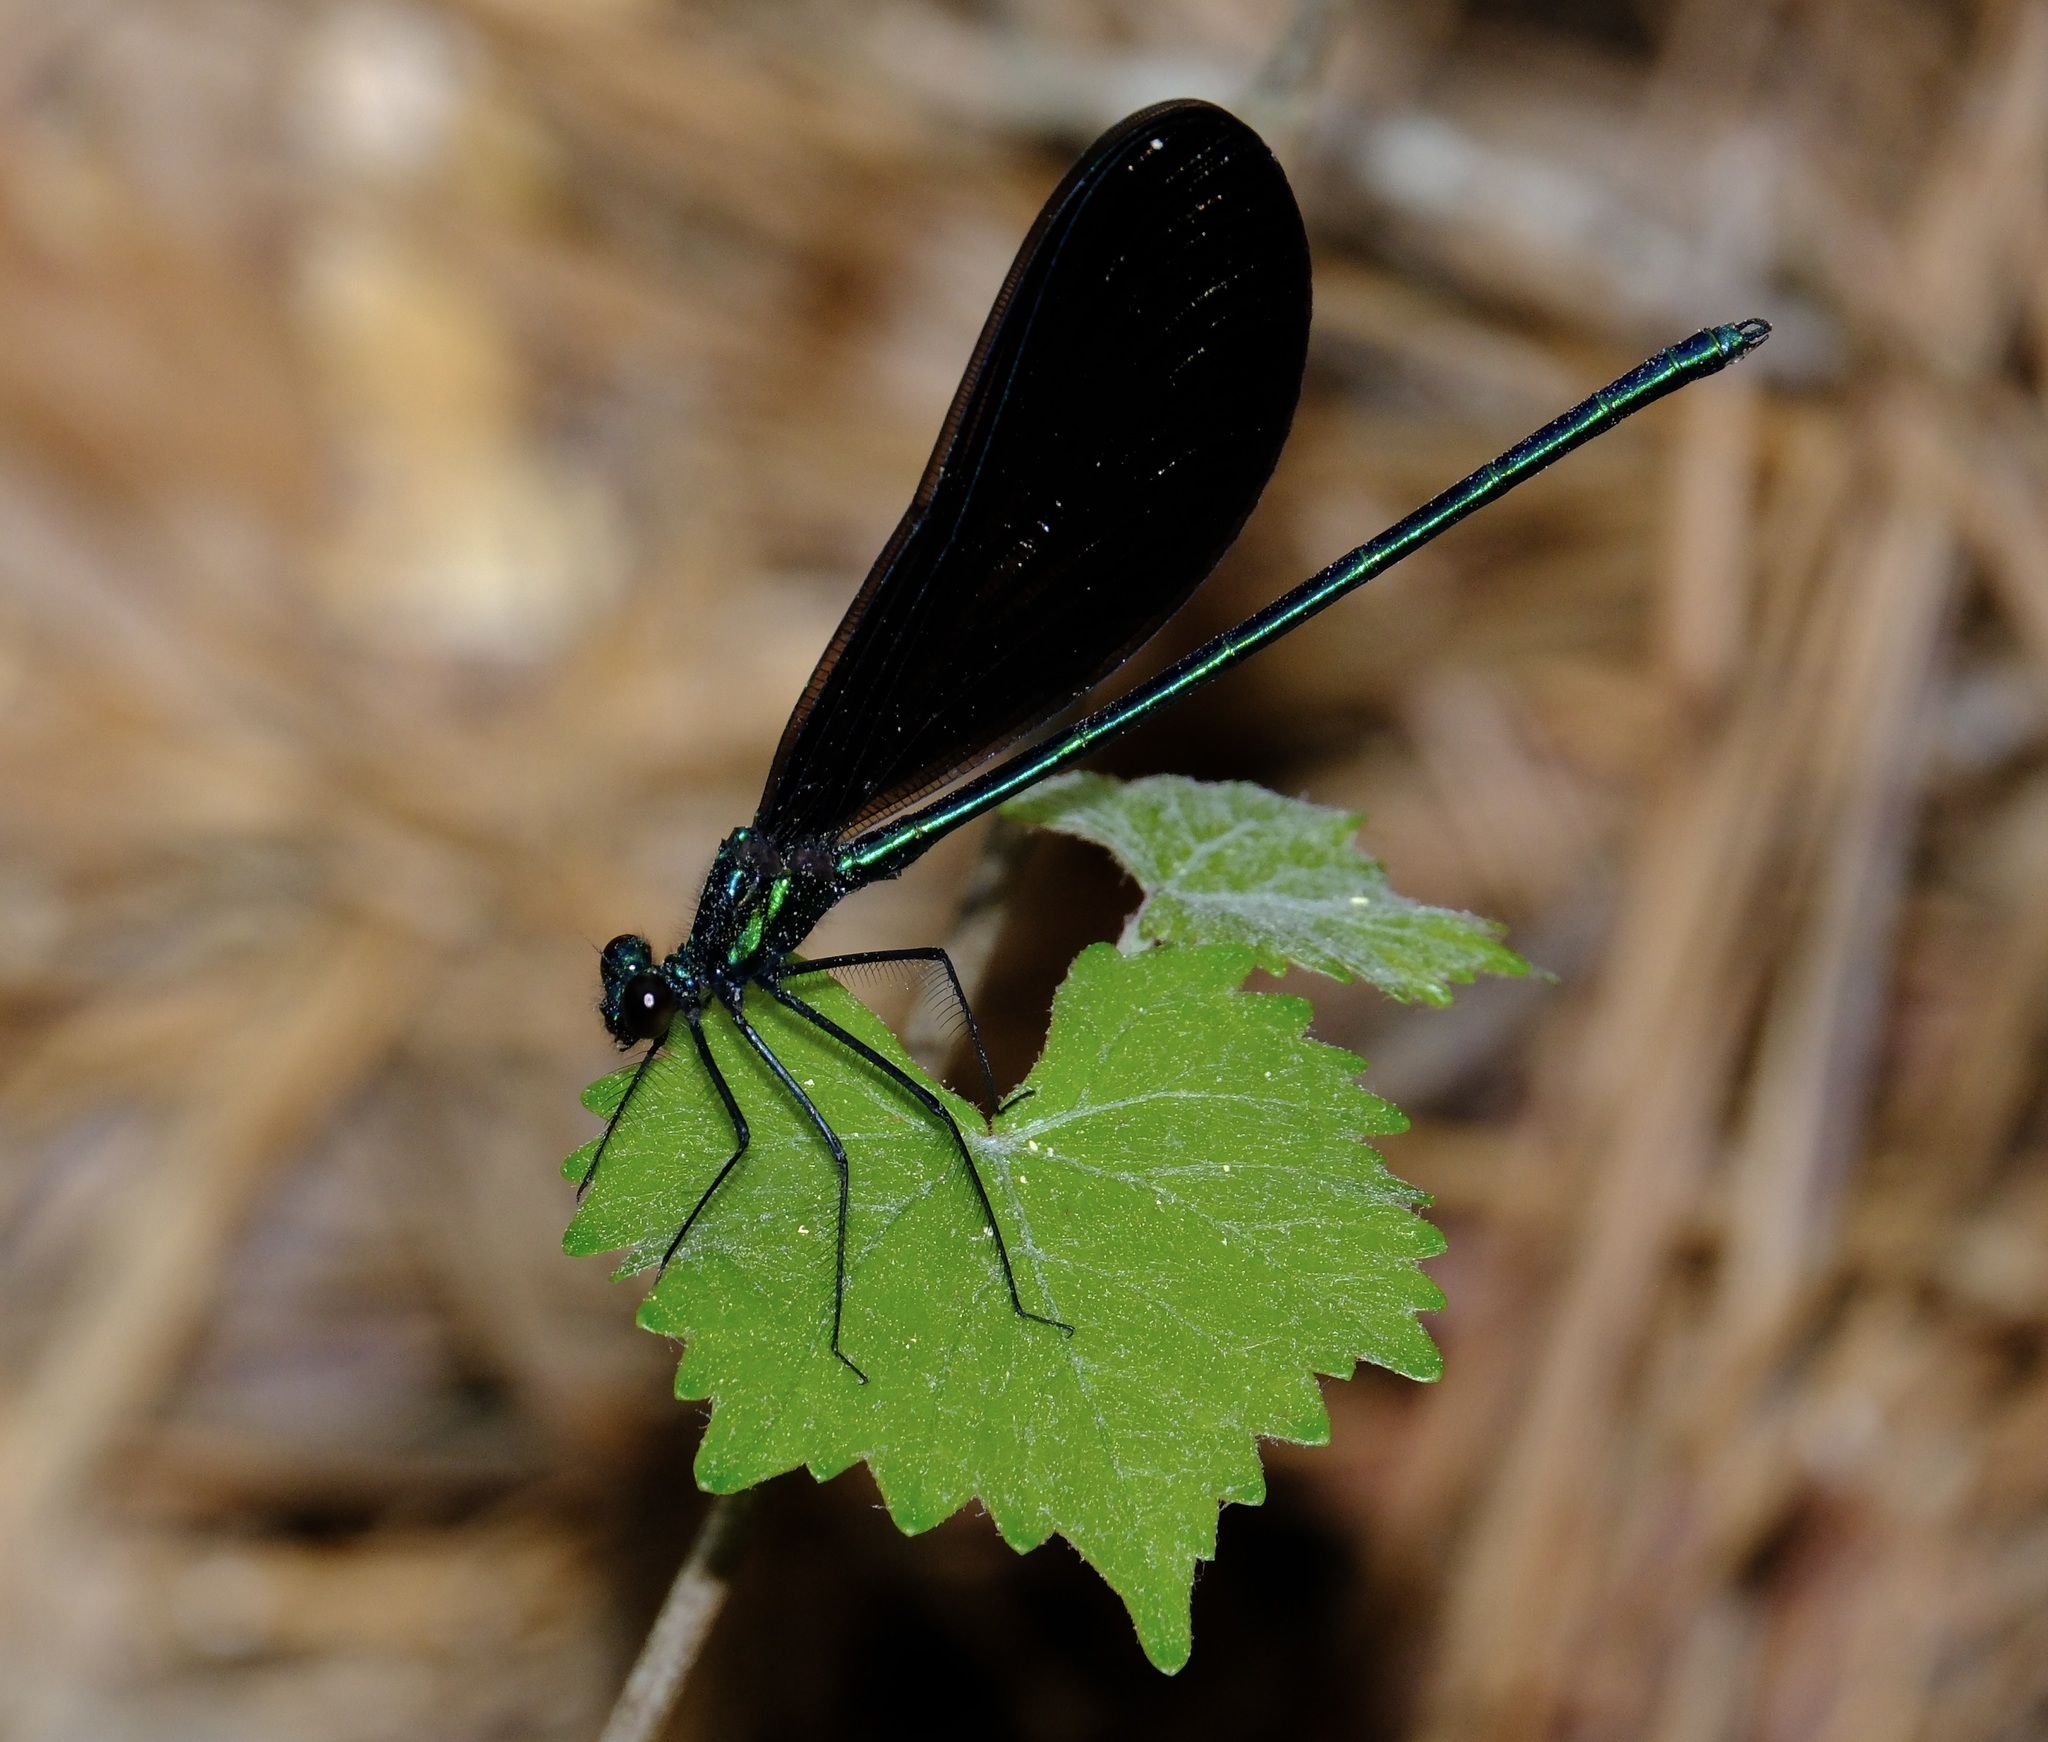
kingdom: Animalia
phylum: Arthropoda
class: Insecta
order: Odonata
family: Calopterygidae
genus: Calopteryx
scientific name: Calopteryx maculata
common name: Ebony jewelwing
